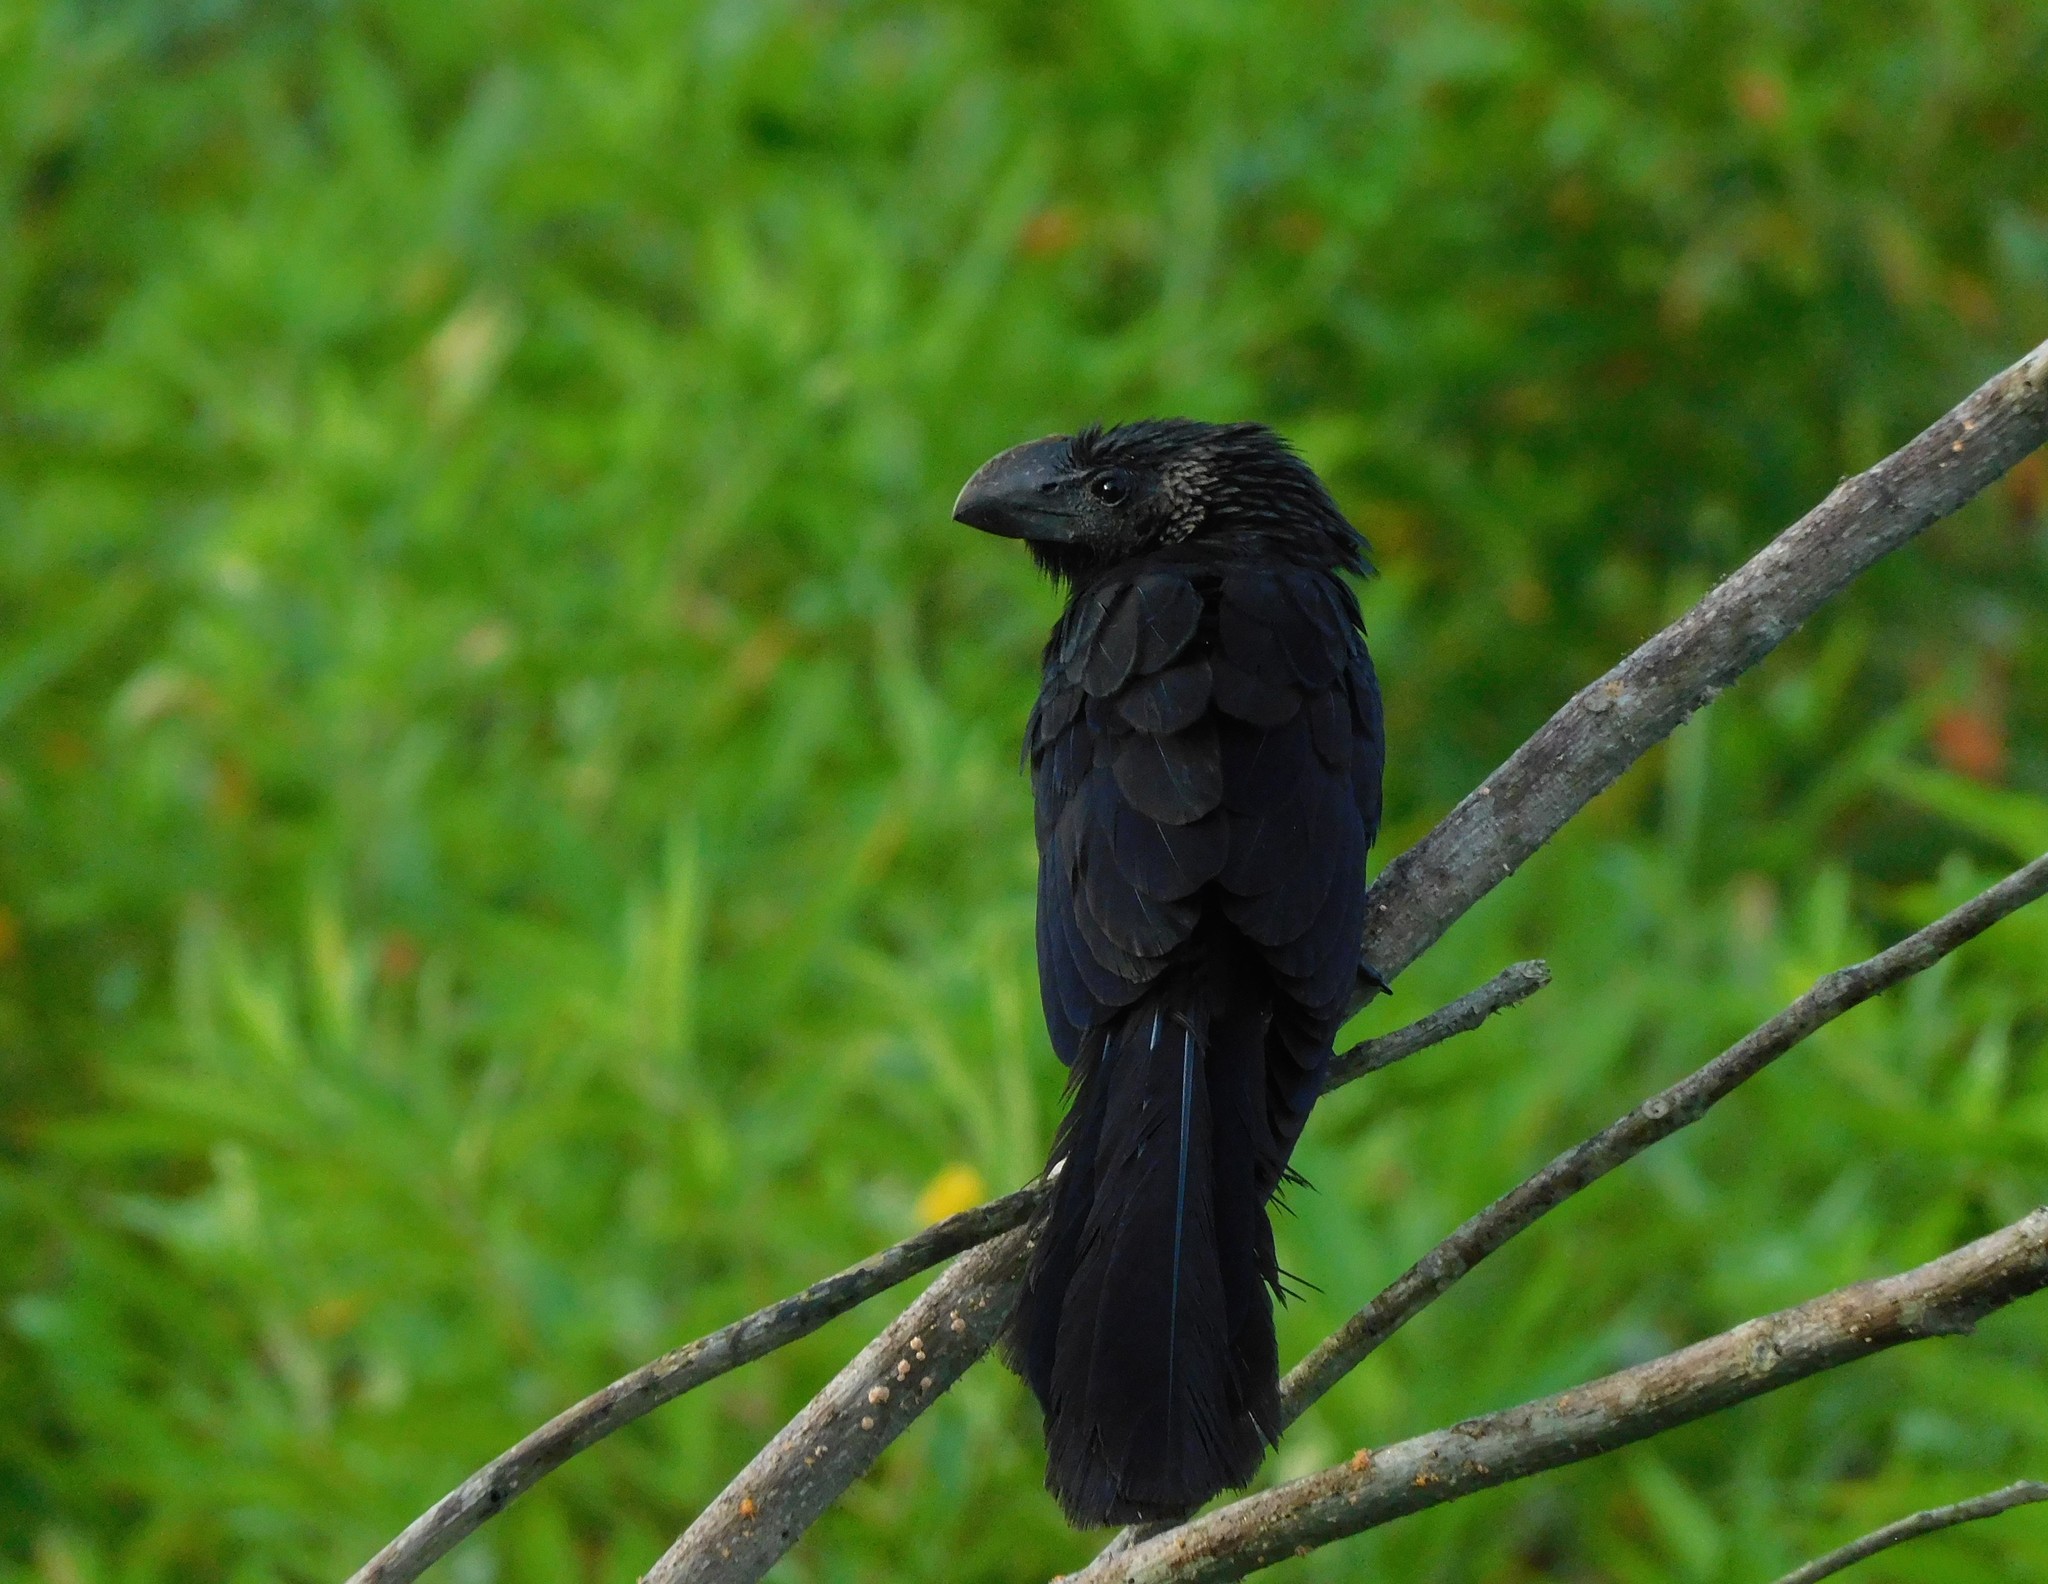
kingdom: Animalia
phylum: Chordata
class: Aves
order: Cuculiformes
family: Cuculidae
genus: Crotophaga
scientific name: Crotophaga ani
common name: Smooth-billed ani
